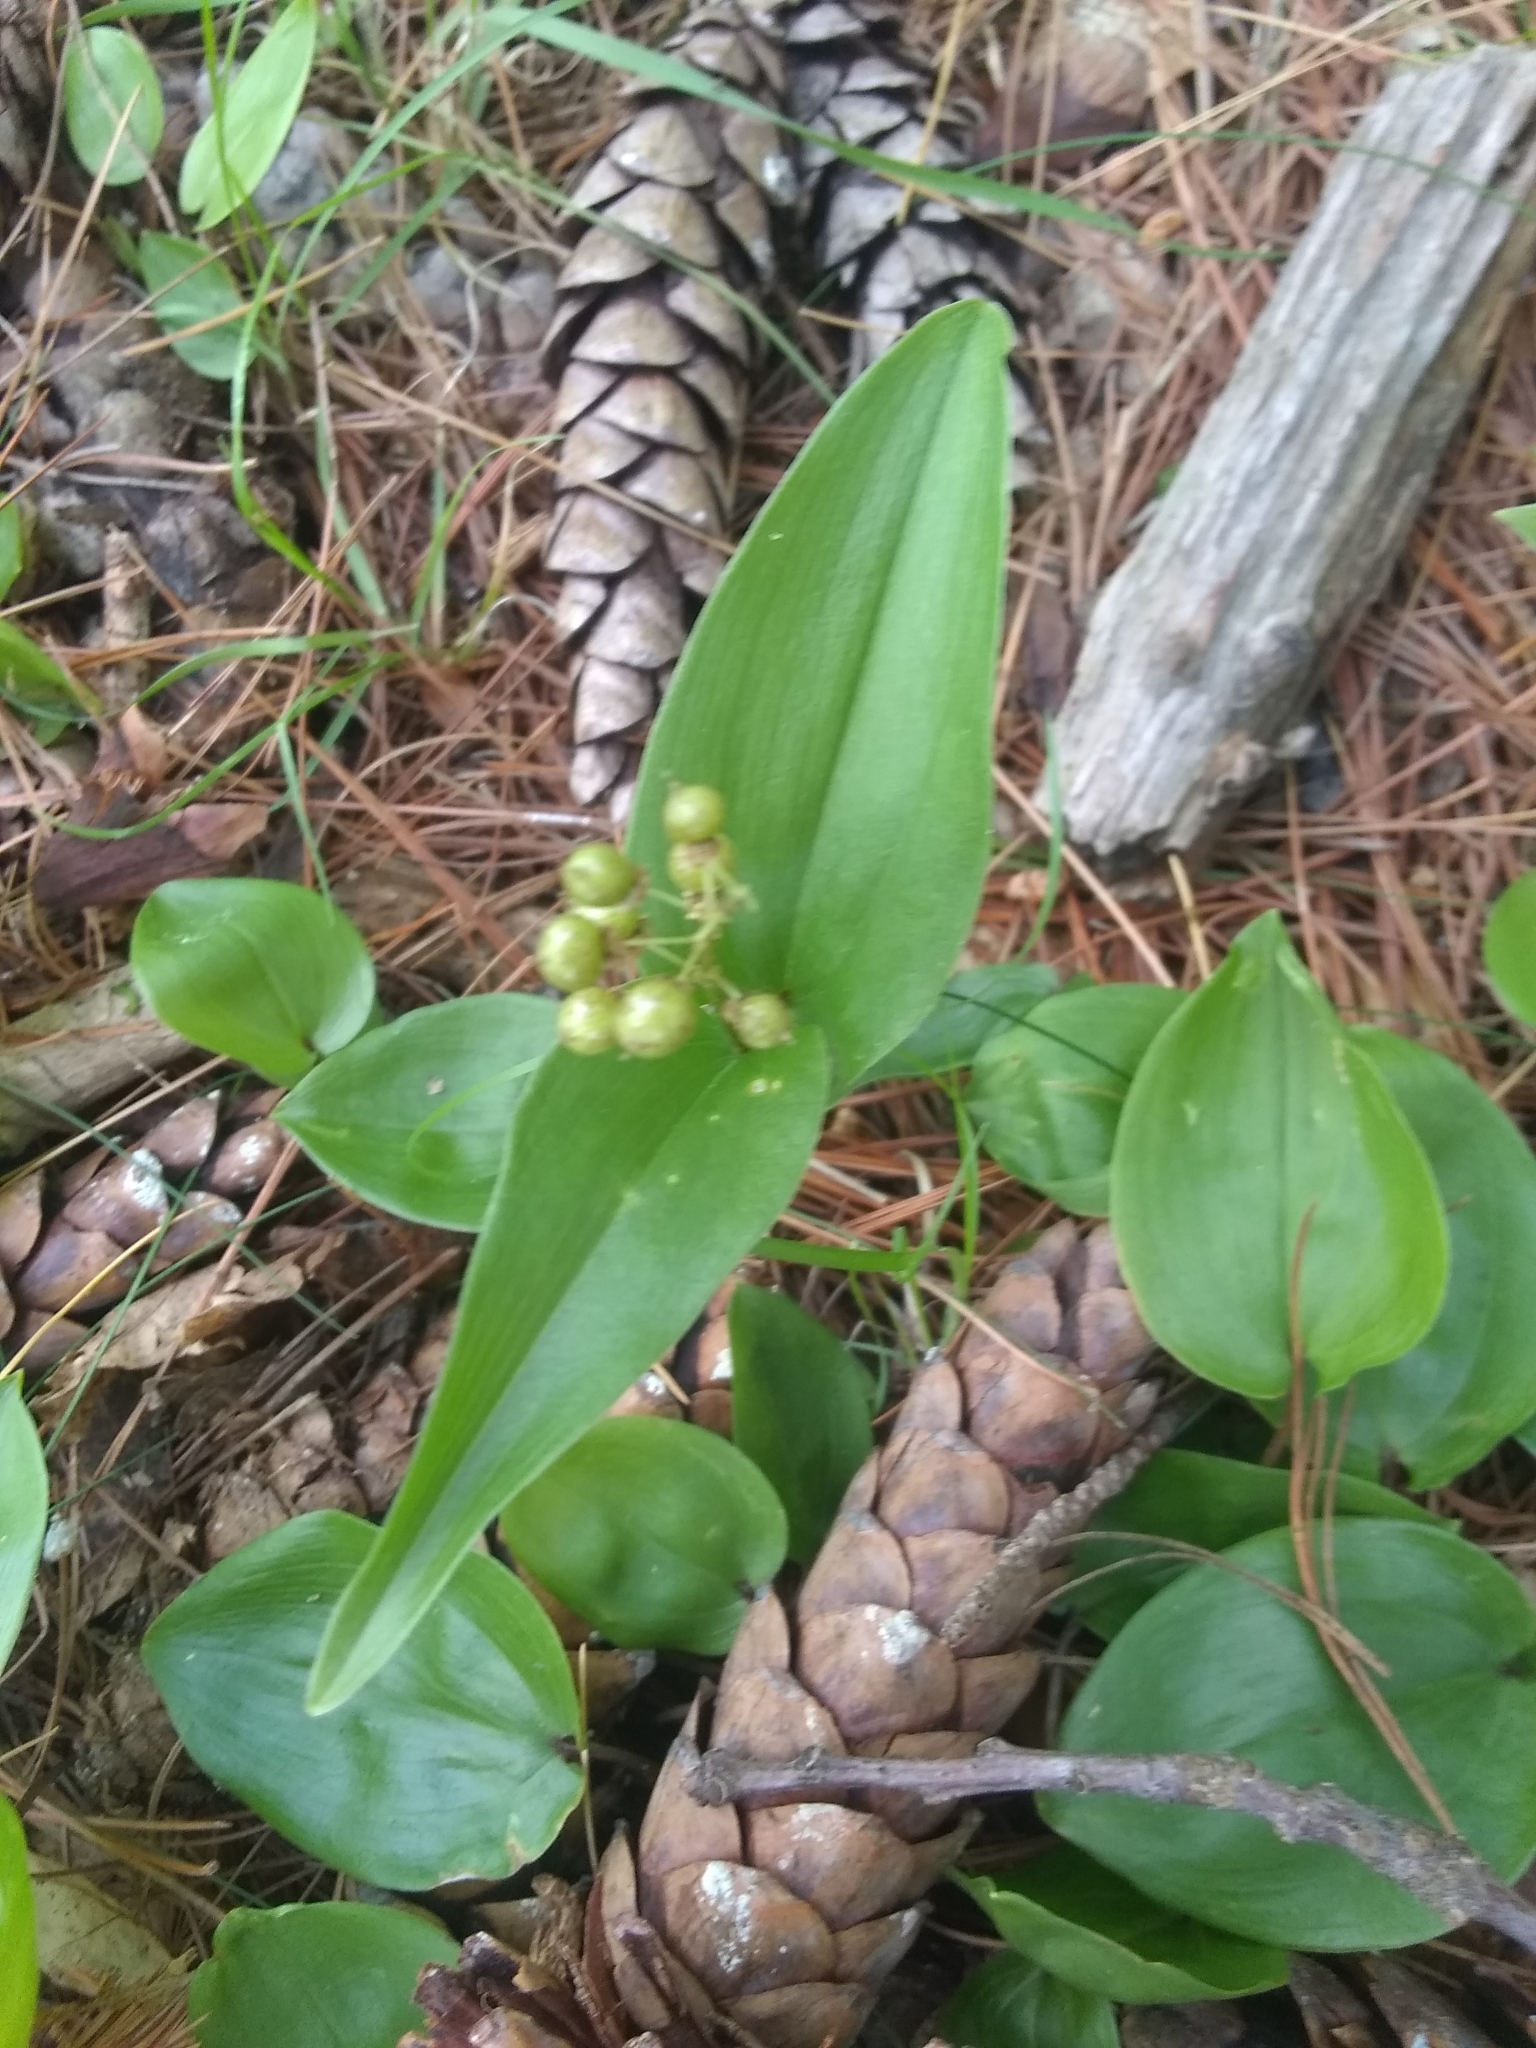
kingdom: Plantae
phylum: Tracheophyta
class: Liliopsida
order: Asparagales
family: Asparagaceae
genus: Maianthemum
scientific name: Maianthemum canadense
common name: False lily-of-the-valley
